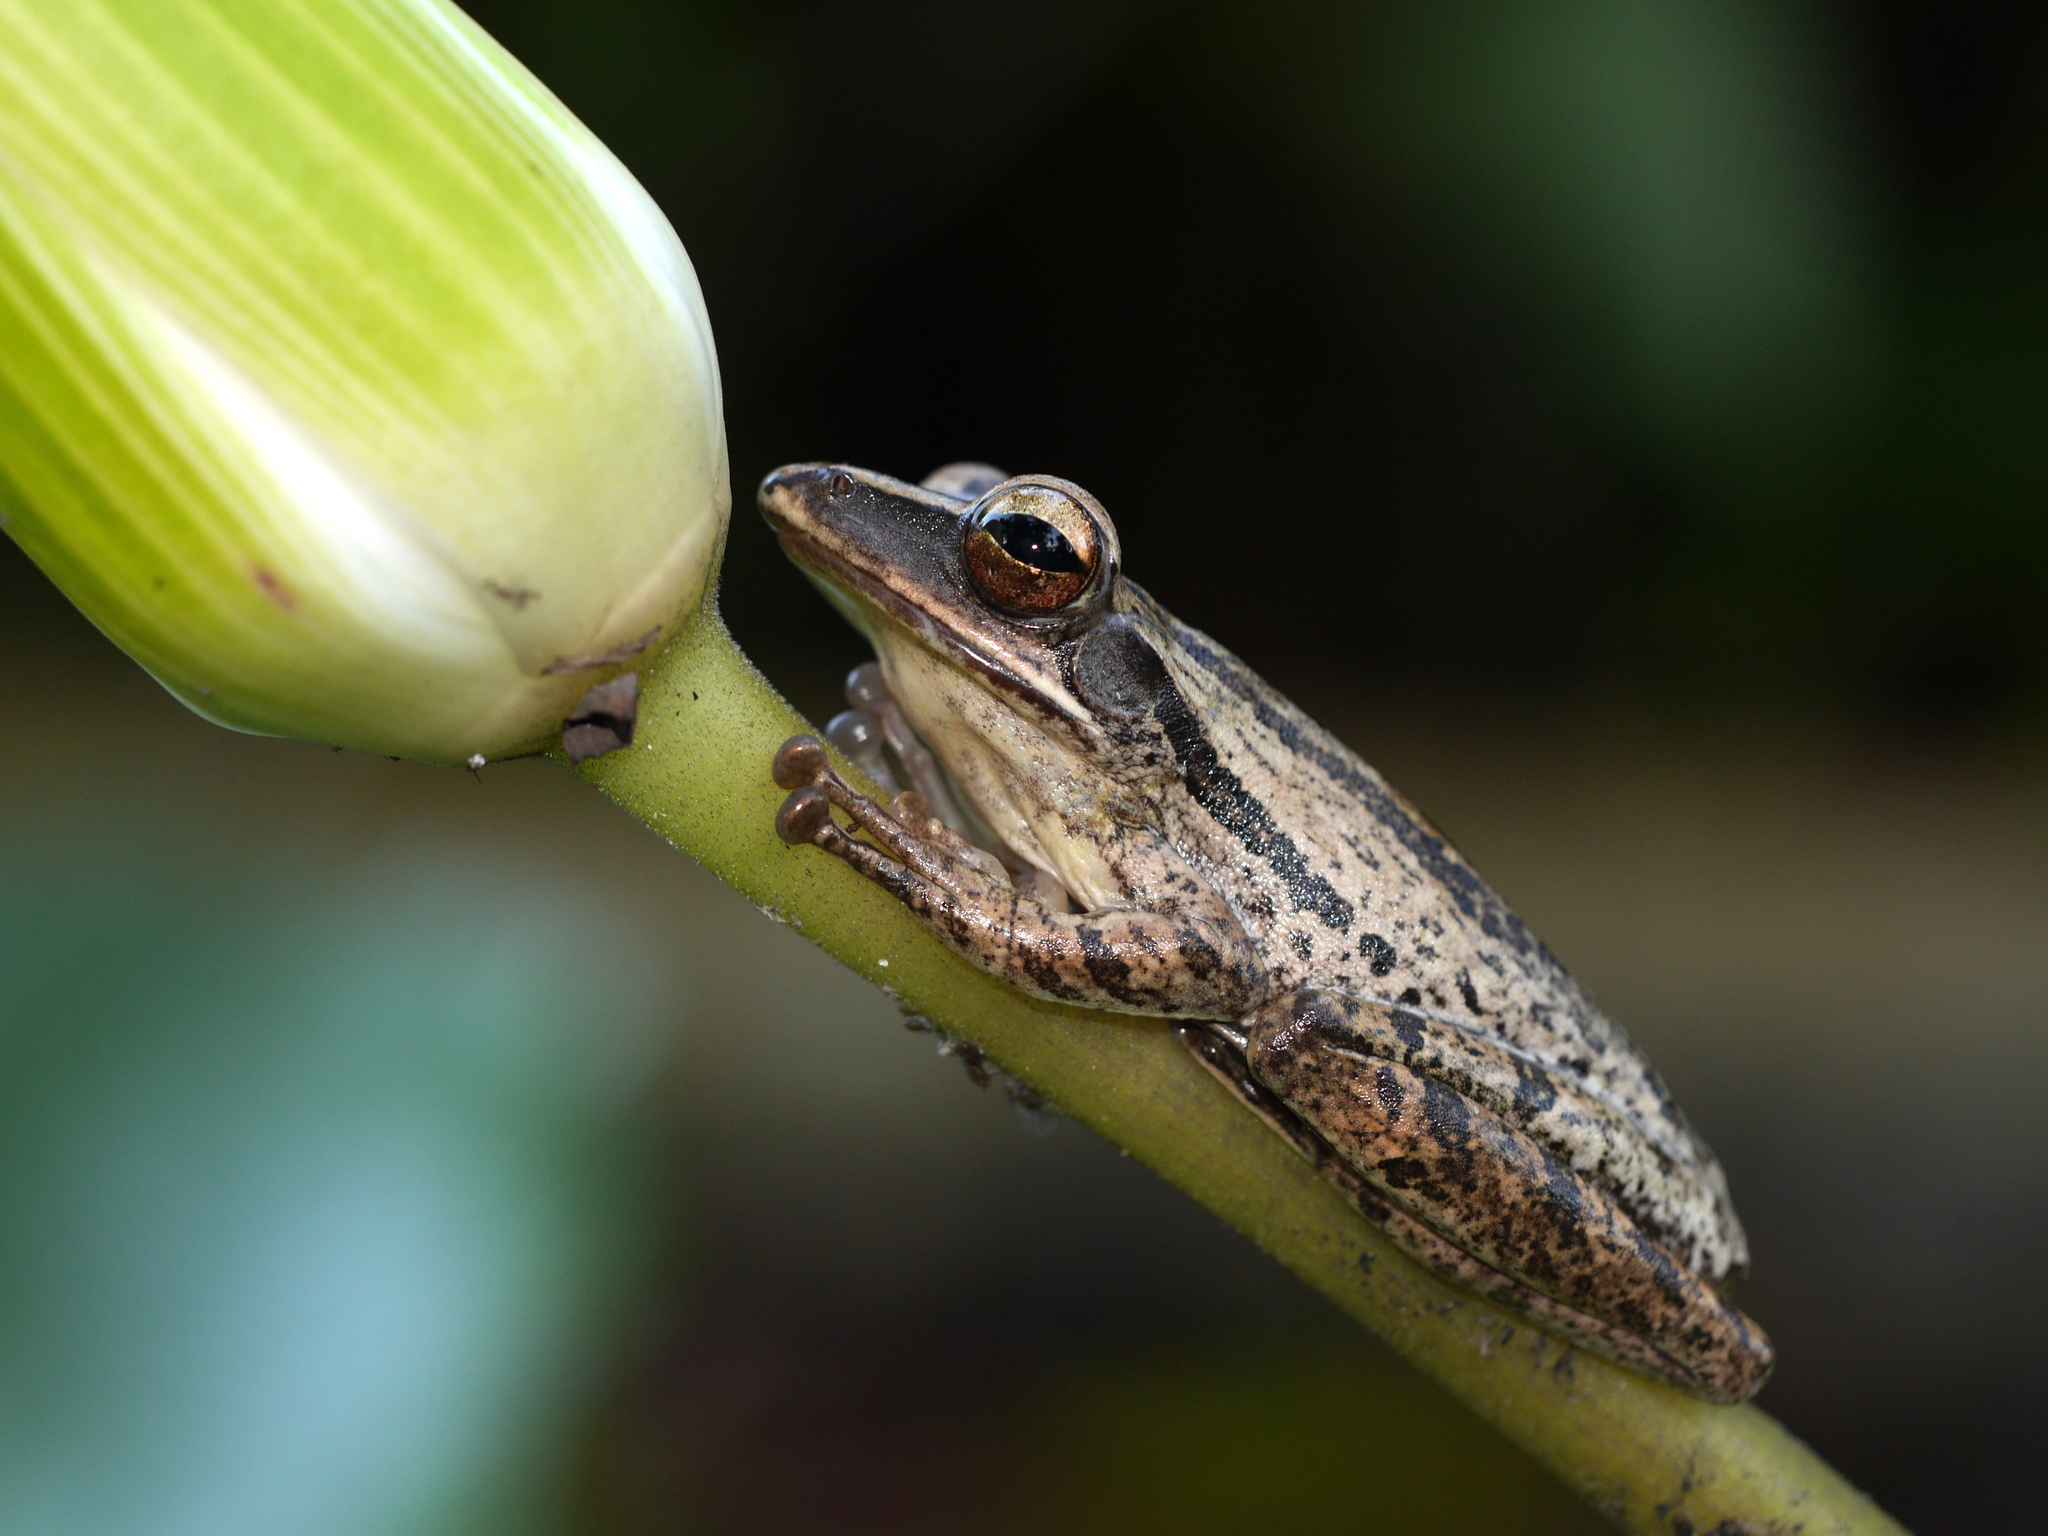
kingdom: Animalia
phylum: Chordata
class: Amphibia
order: Anura
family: Rhacophoridae
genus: Polypedates
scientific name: Polypedates leucomystax
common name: Common tree frog/four-lined tree frog
